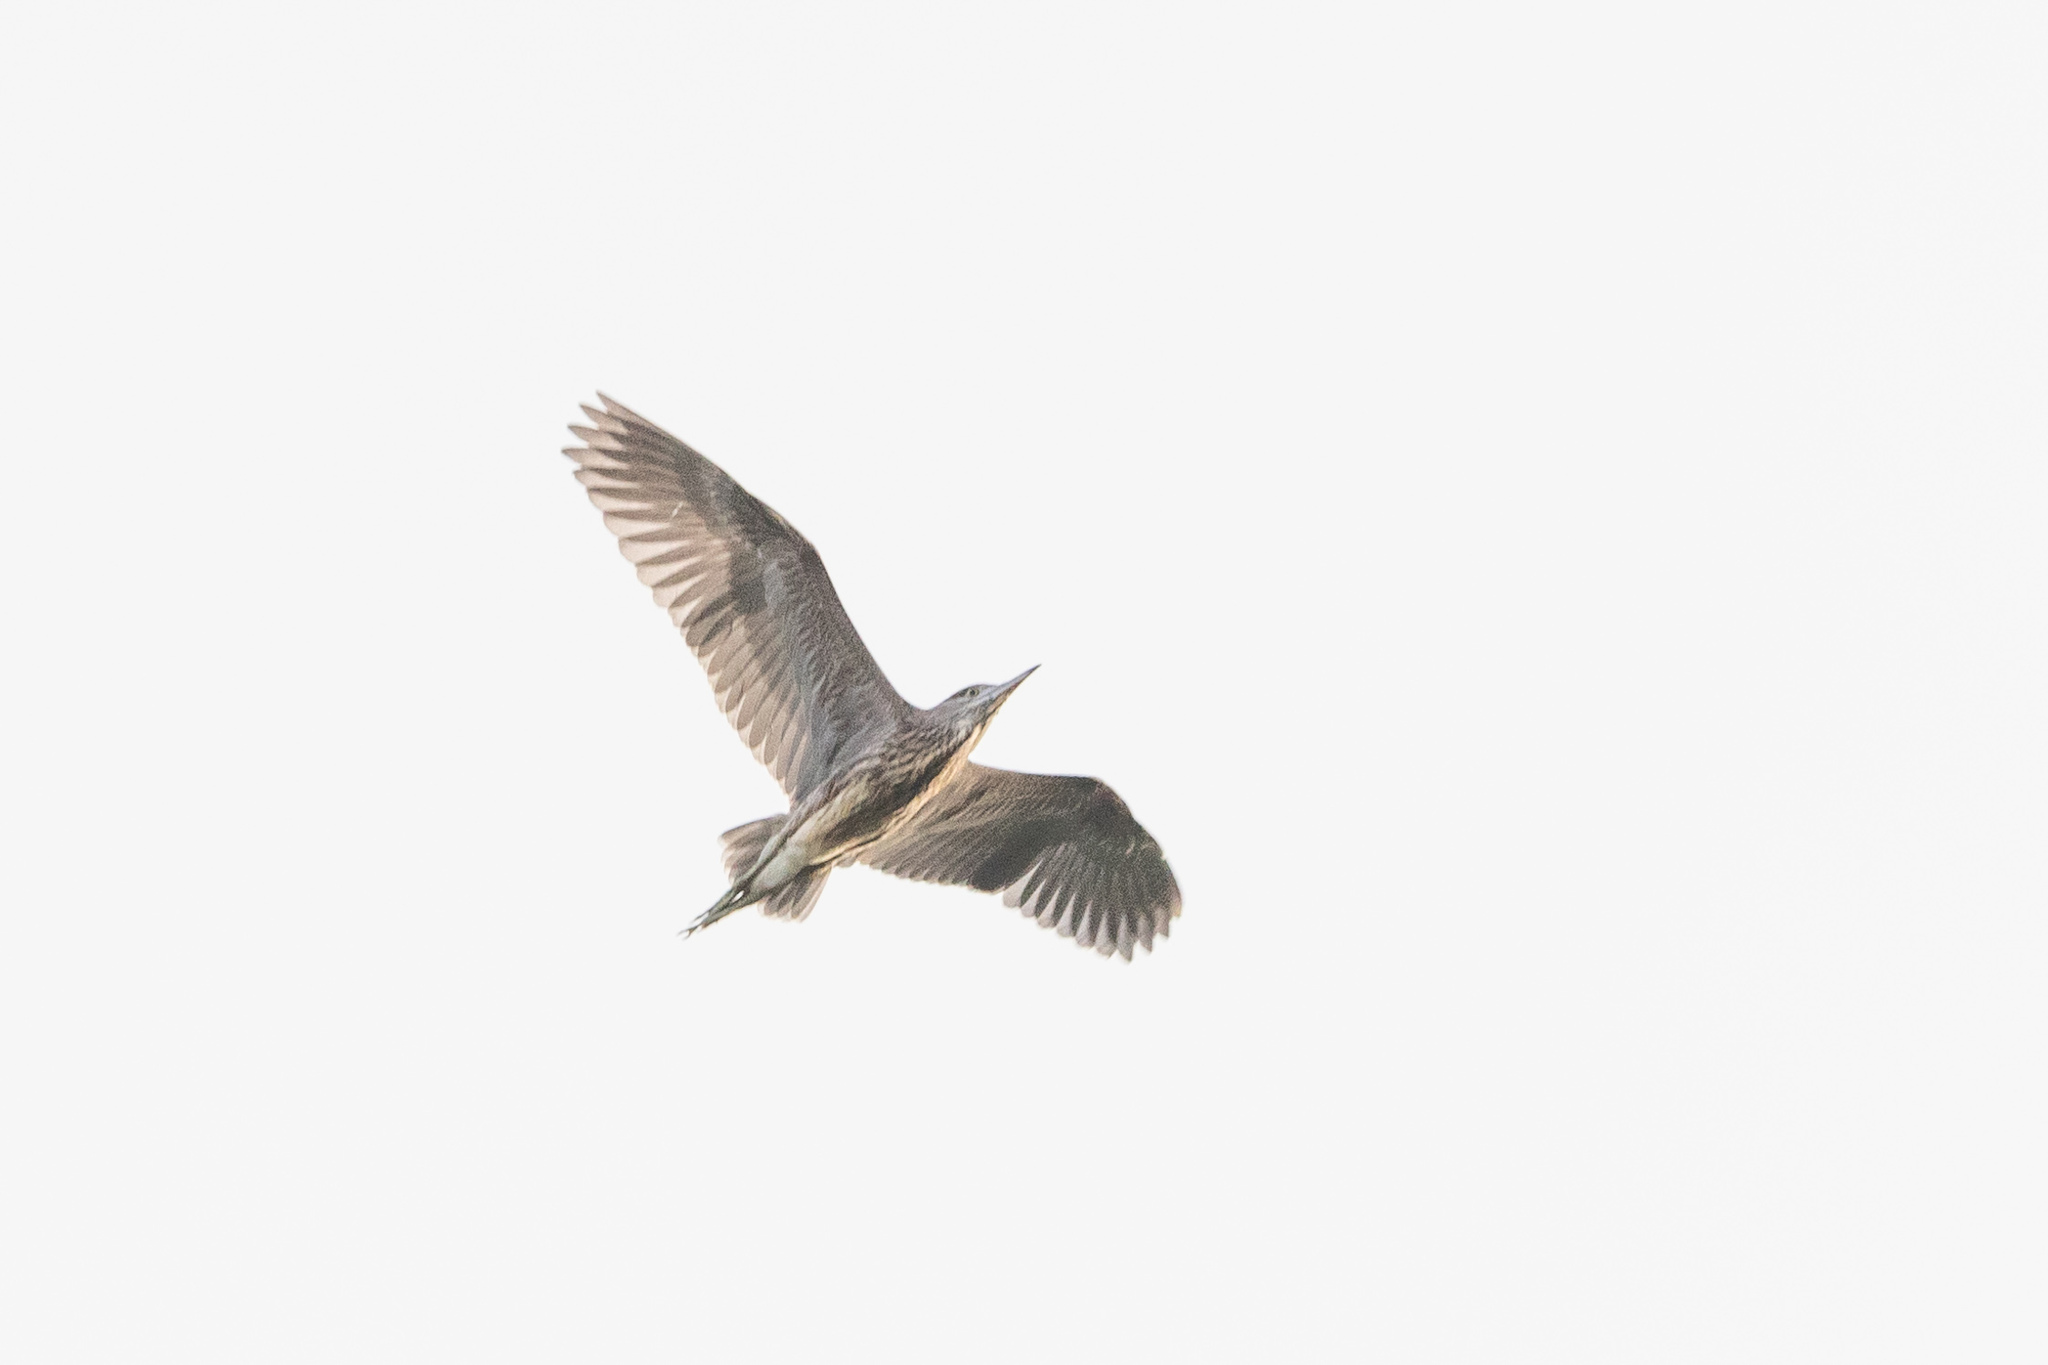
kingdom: Animalia
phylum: Chordata
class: Aves
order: Pelecaniformes
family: Ardeidae
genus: Nycticorax
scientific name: Nycticorax nycticorax
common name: Black-crowned night heron
